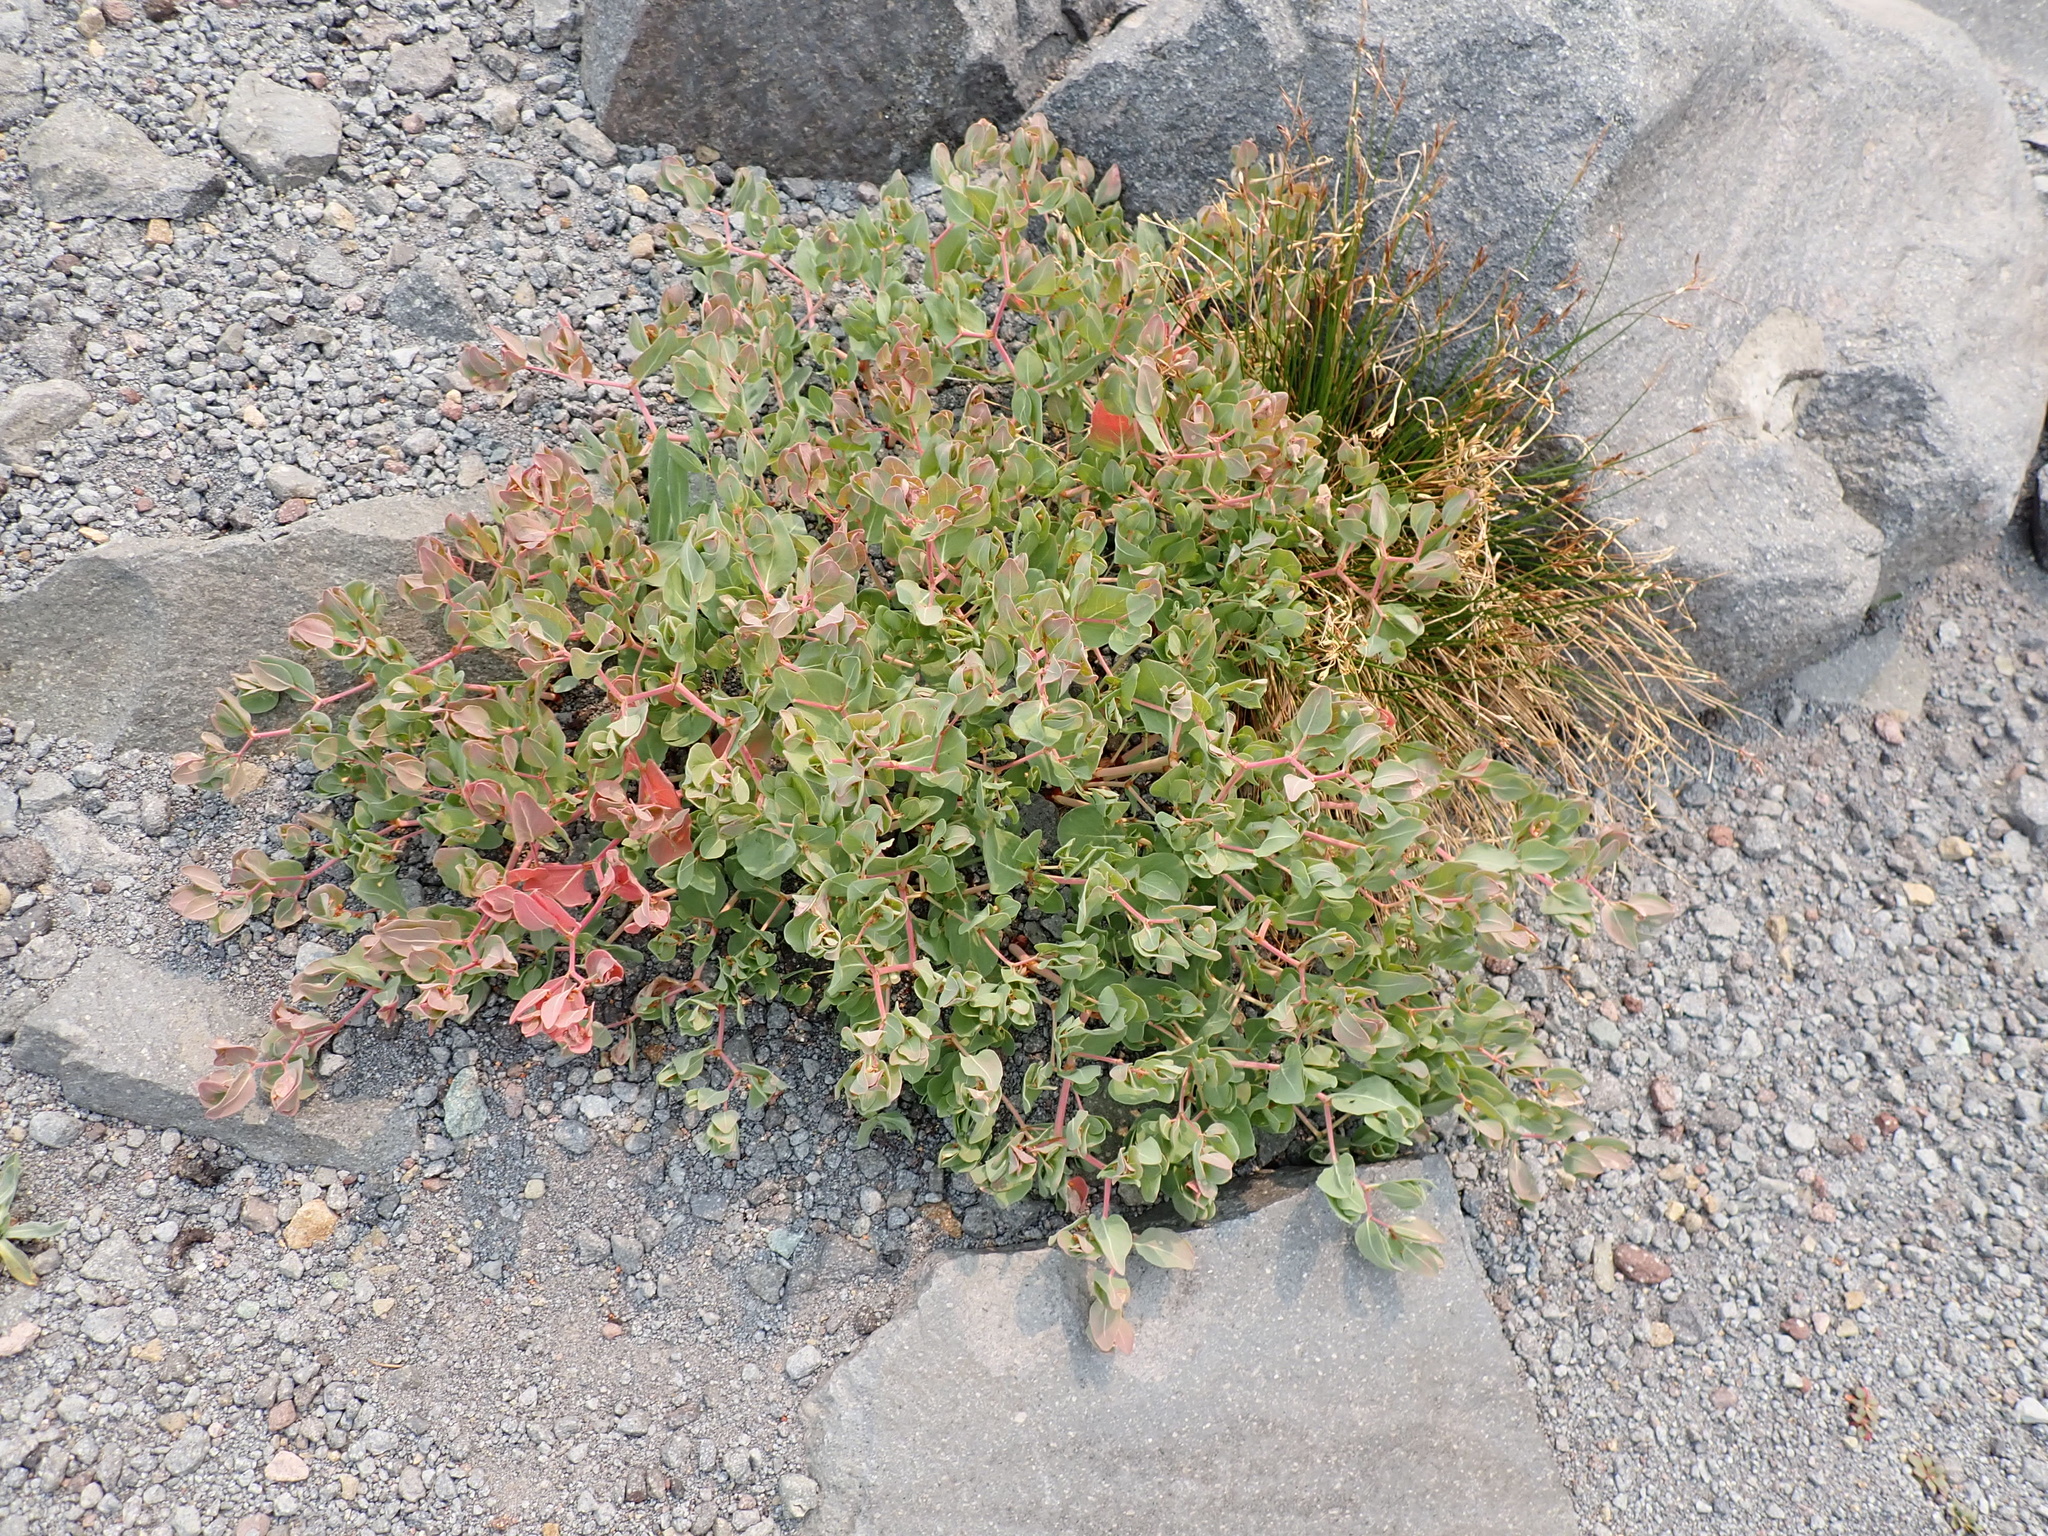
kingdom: Plantae
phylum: Tracheophyta
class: Magnoliopsida
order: Caryophyllales
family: Polygonaceae
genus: Koenigia
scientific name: Koenigia davisiae
